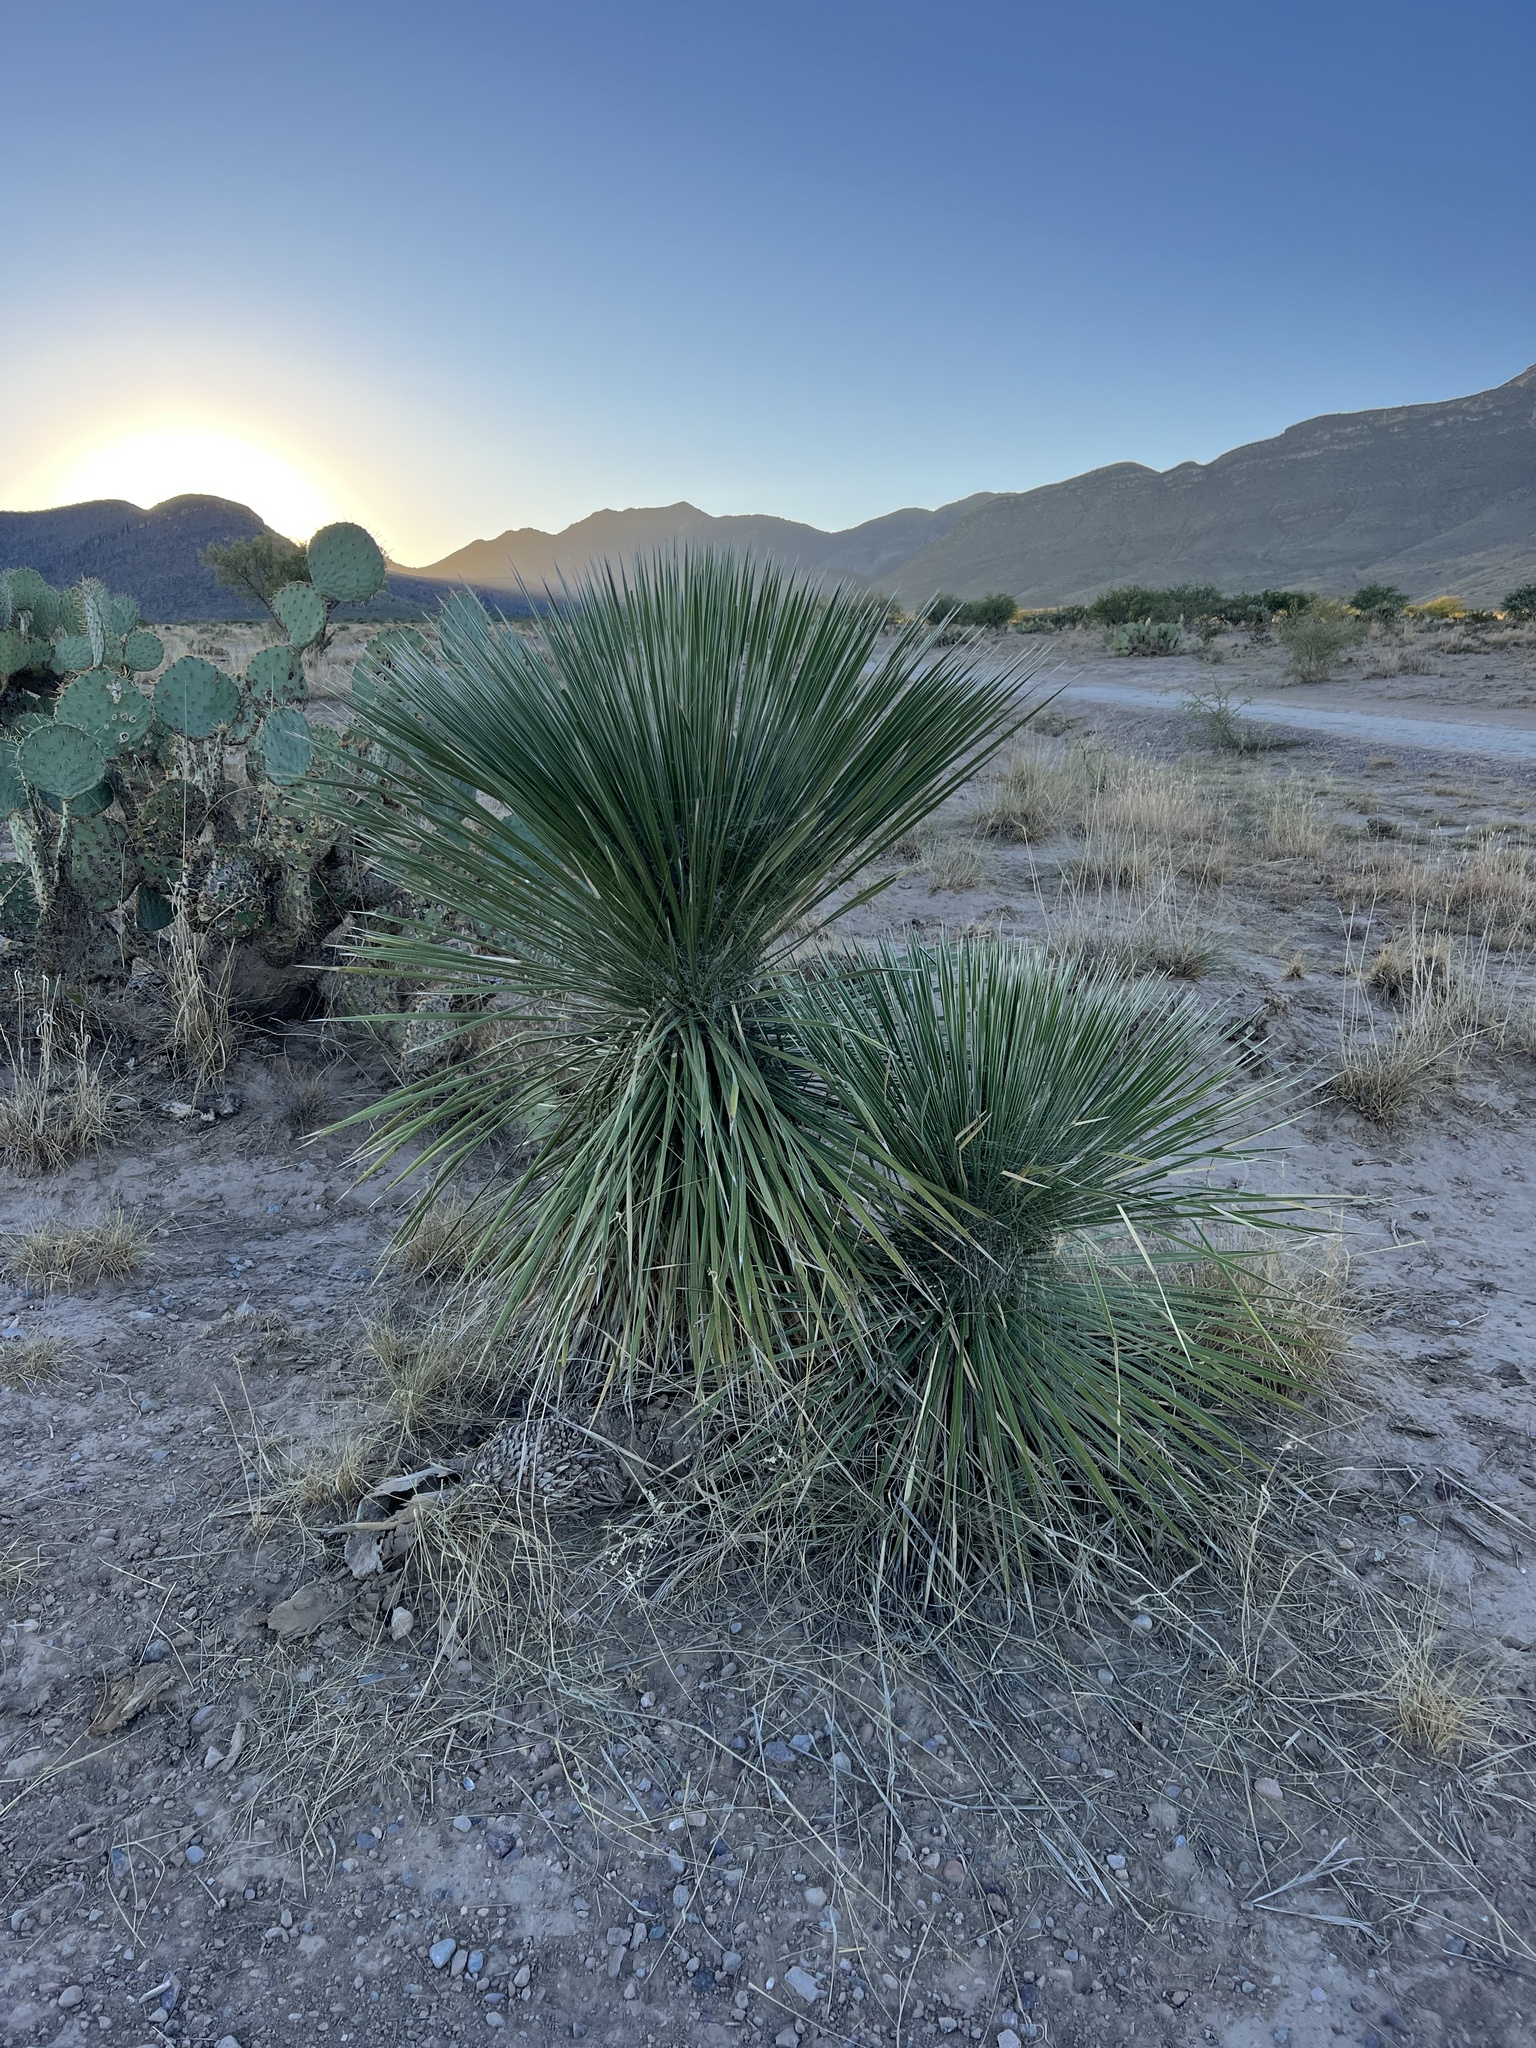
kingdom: Plantae
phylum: Tracheophyta
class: Liliopsida
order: Asparagales
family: Asparagaceae
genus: Yucca
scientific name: Yucca elata
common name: Palmella
